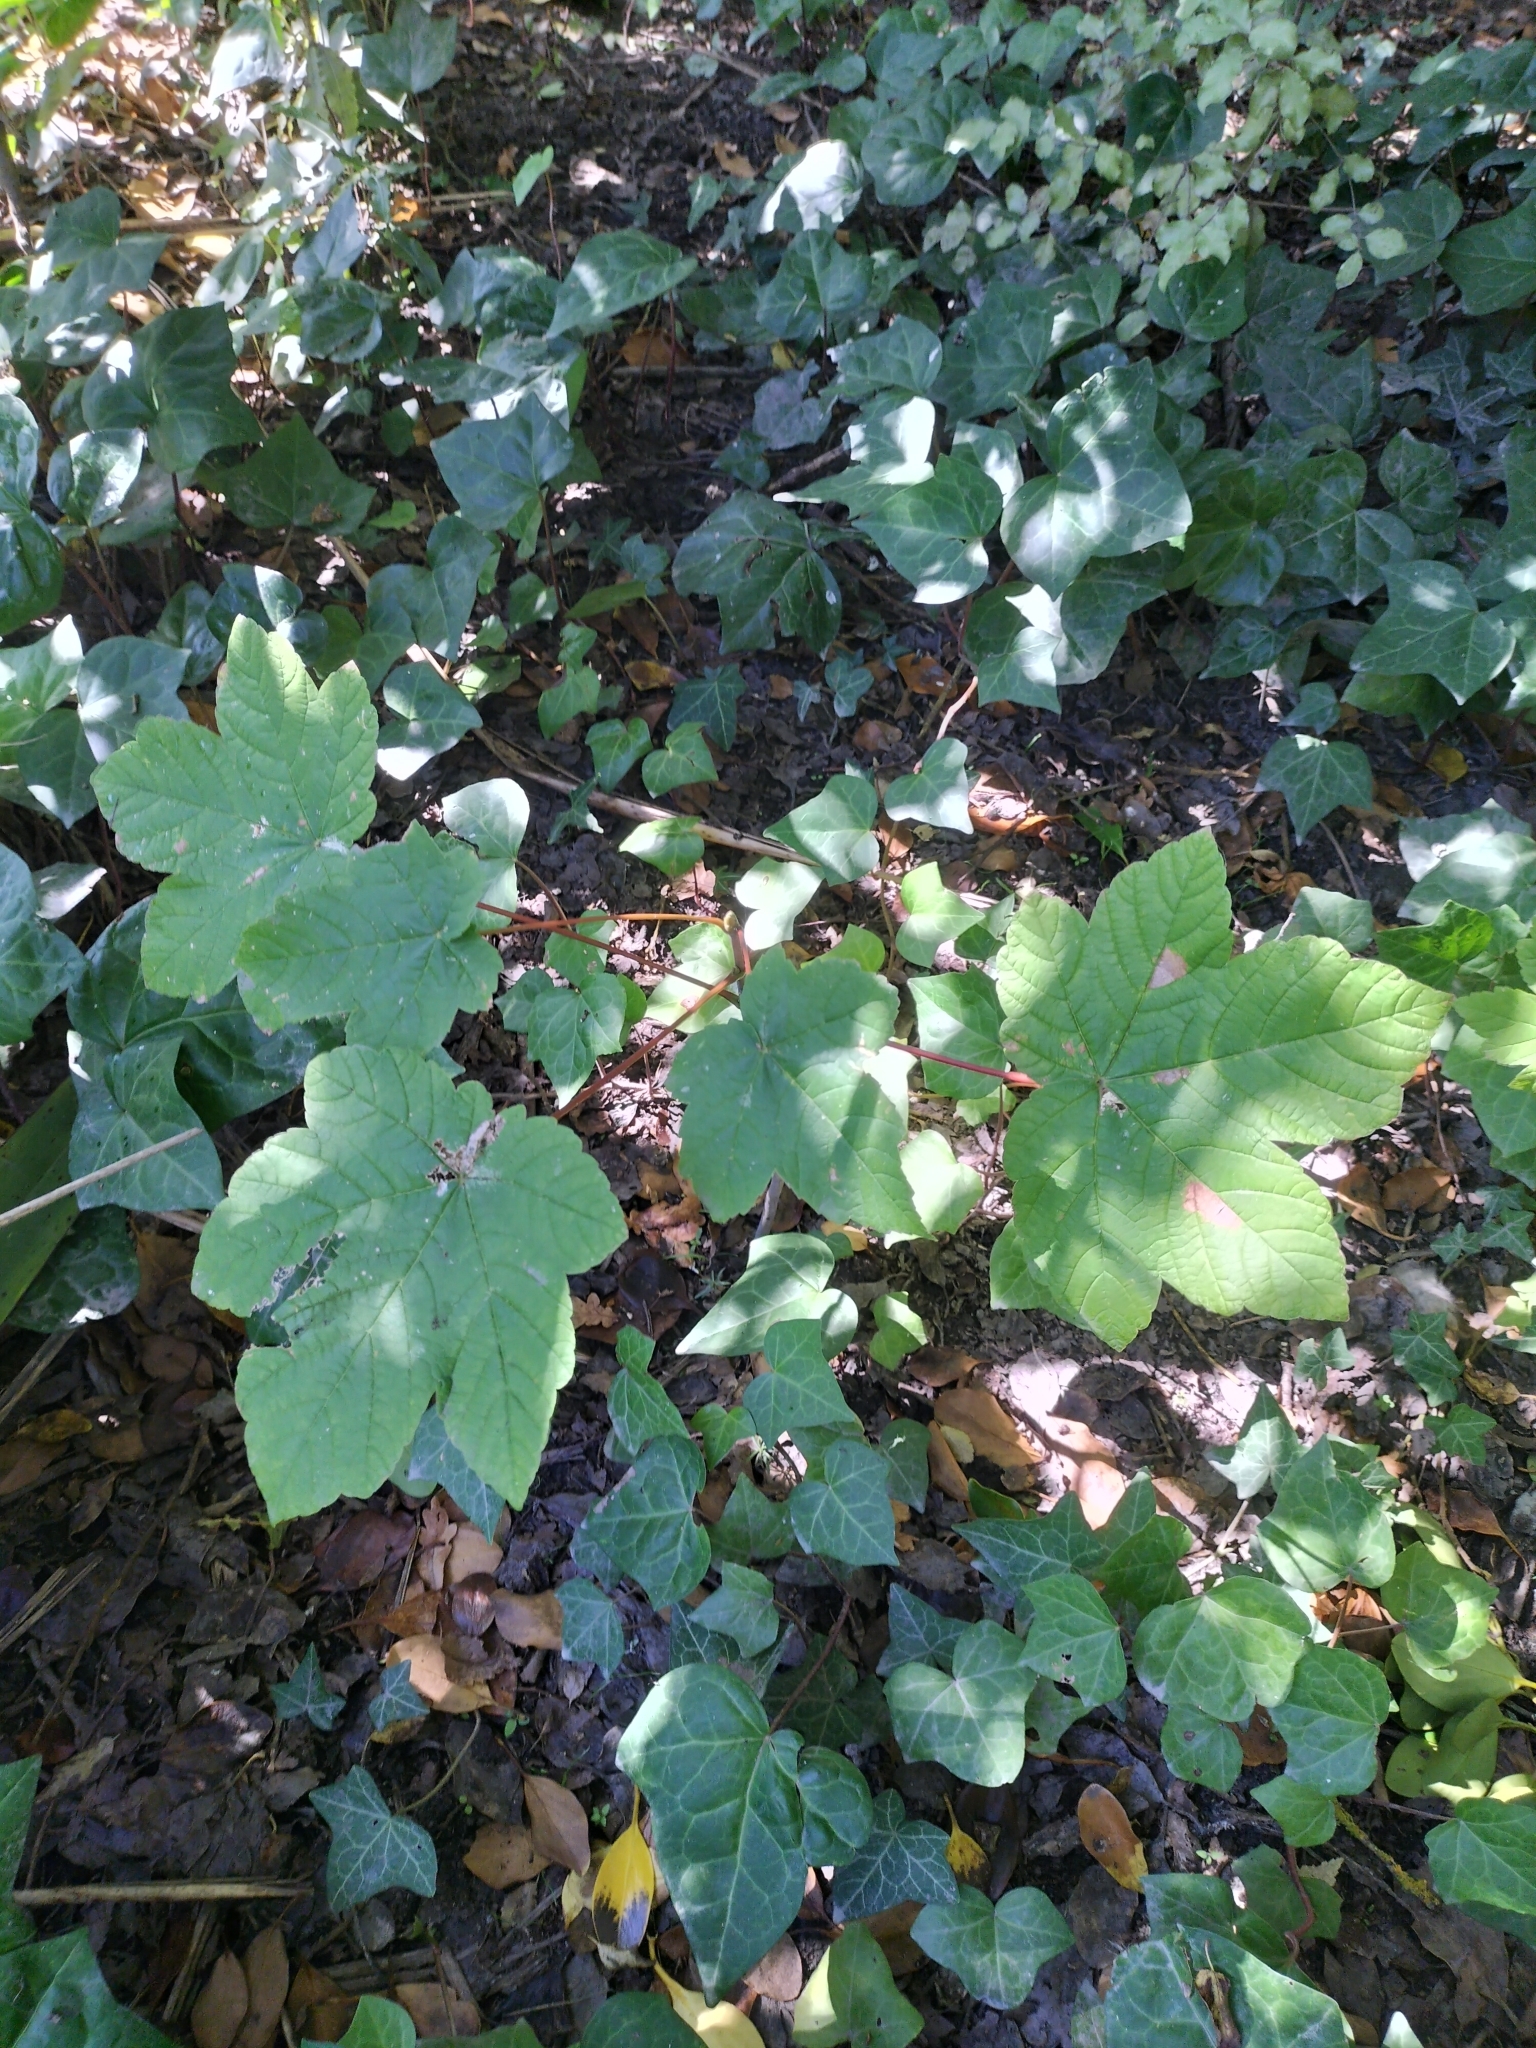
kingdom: Plantae
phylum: Tracheophyta
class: Magnoliopsida
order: Sapindales
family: Sapindaceae
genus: Acer
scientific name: Acer pseudoplatanus
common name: Sycamore
